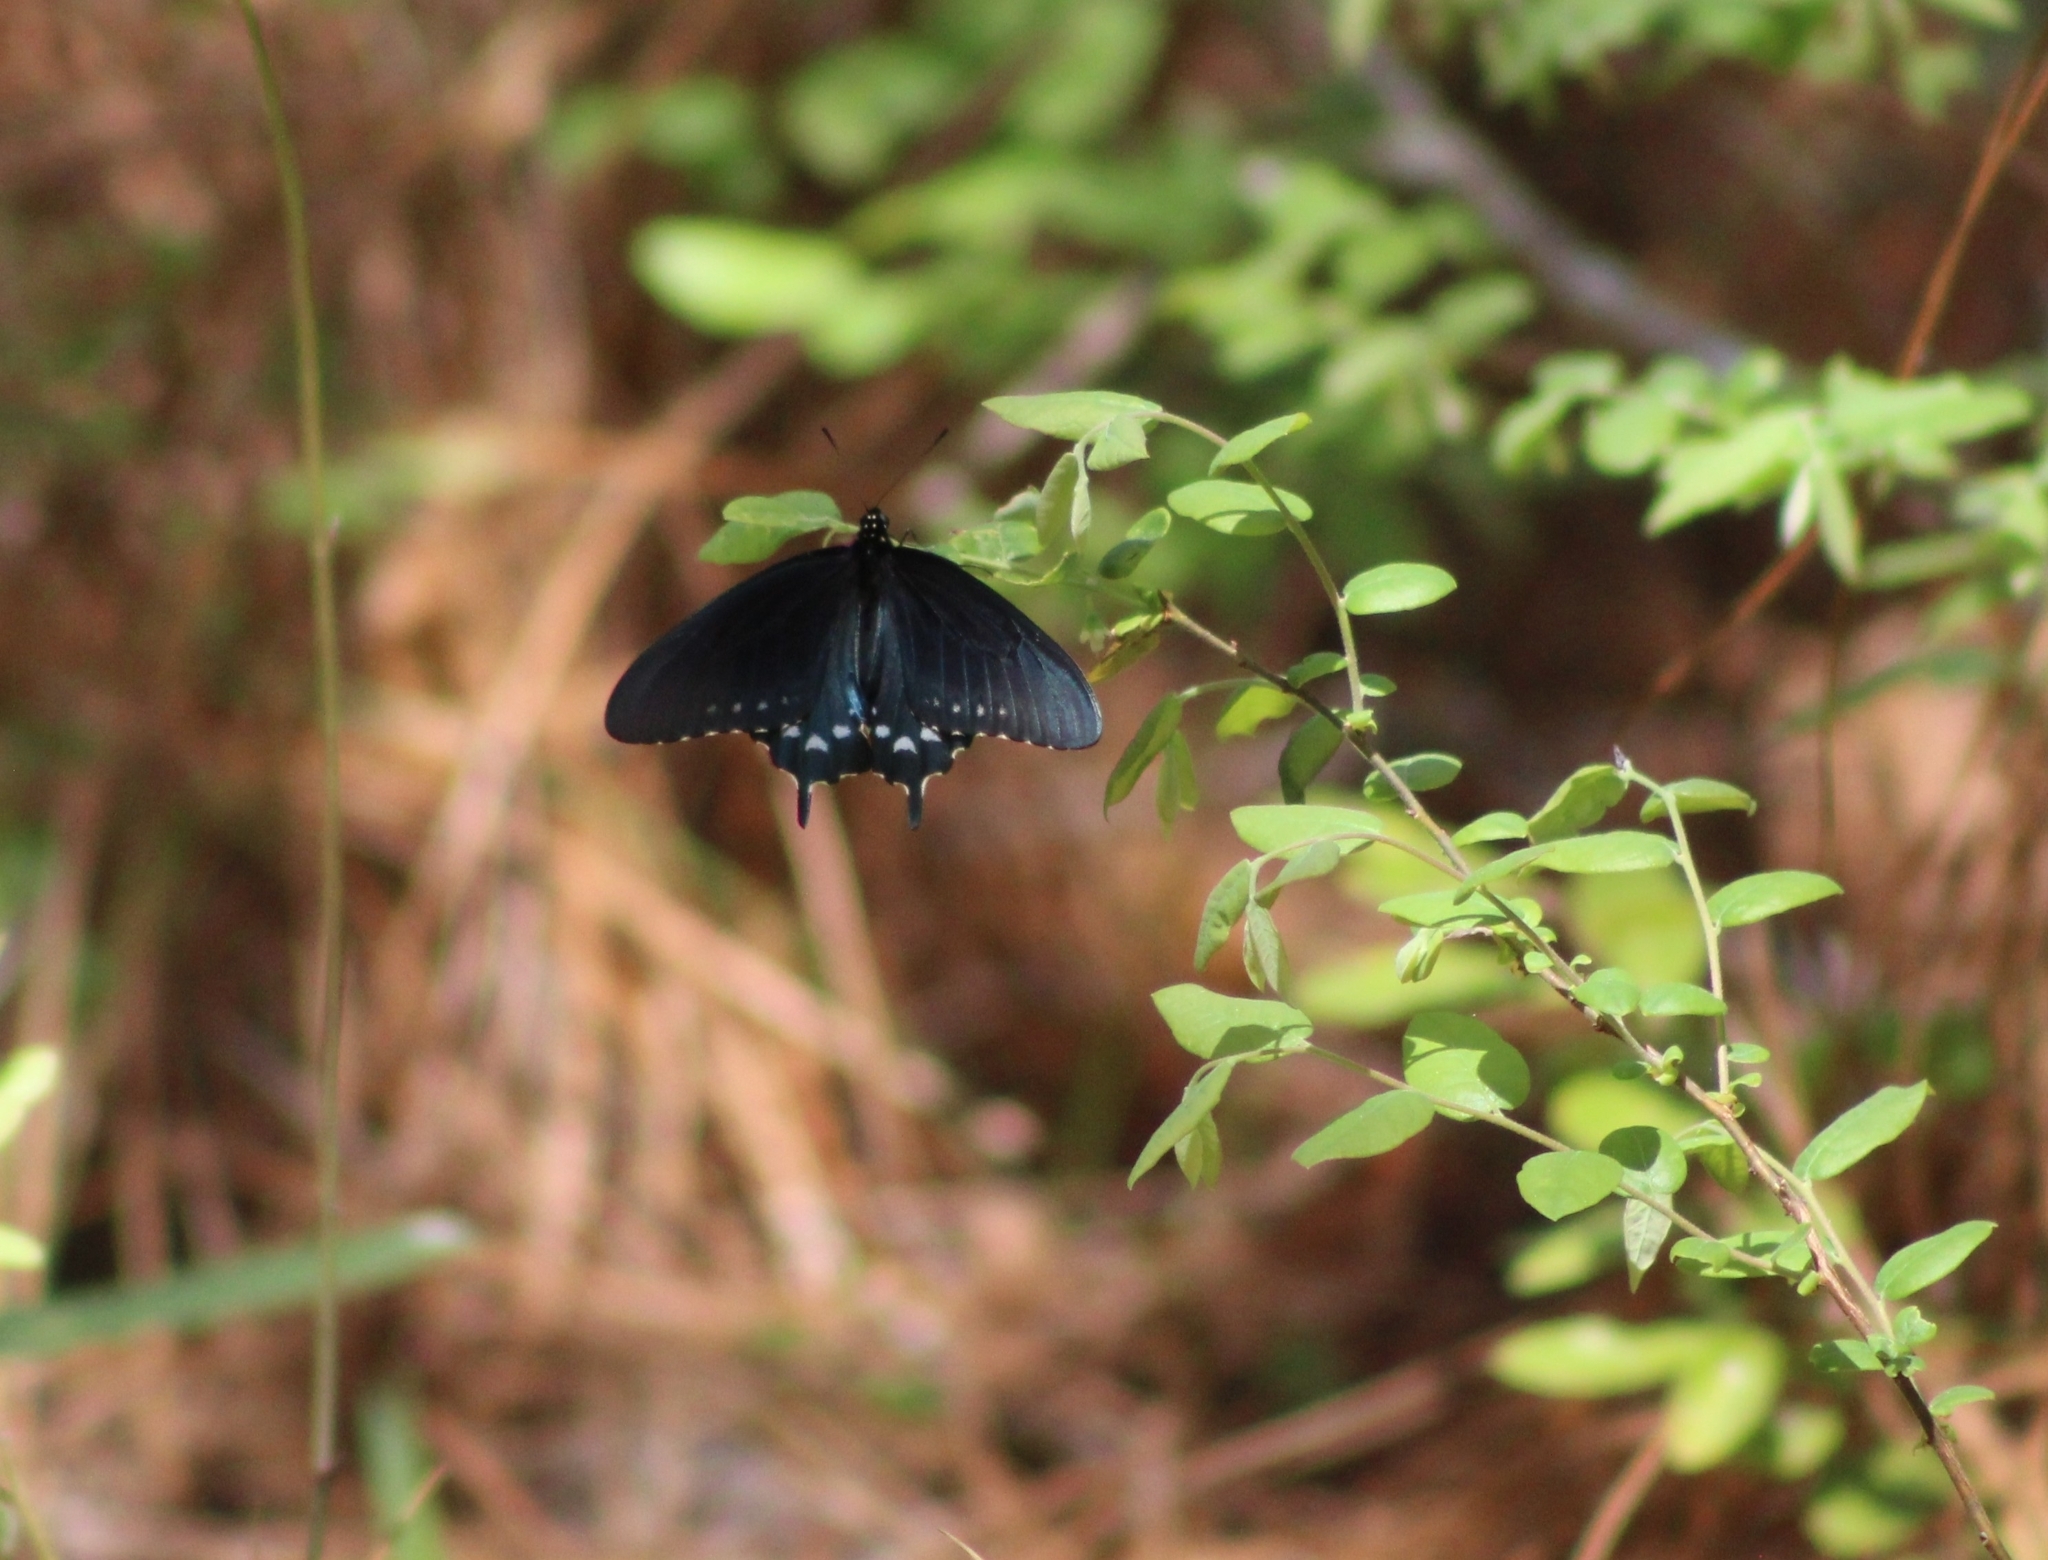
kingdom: Animalia
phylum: Arthropoda
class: Insecta
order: Lepidoptera
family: Papilionidae
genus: Battus
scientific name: Battus philenor
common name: Pipevine swallowtail
